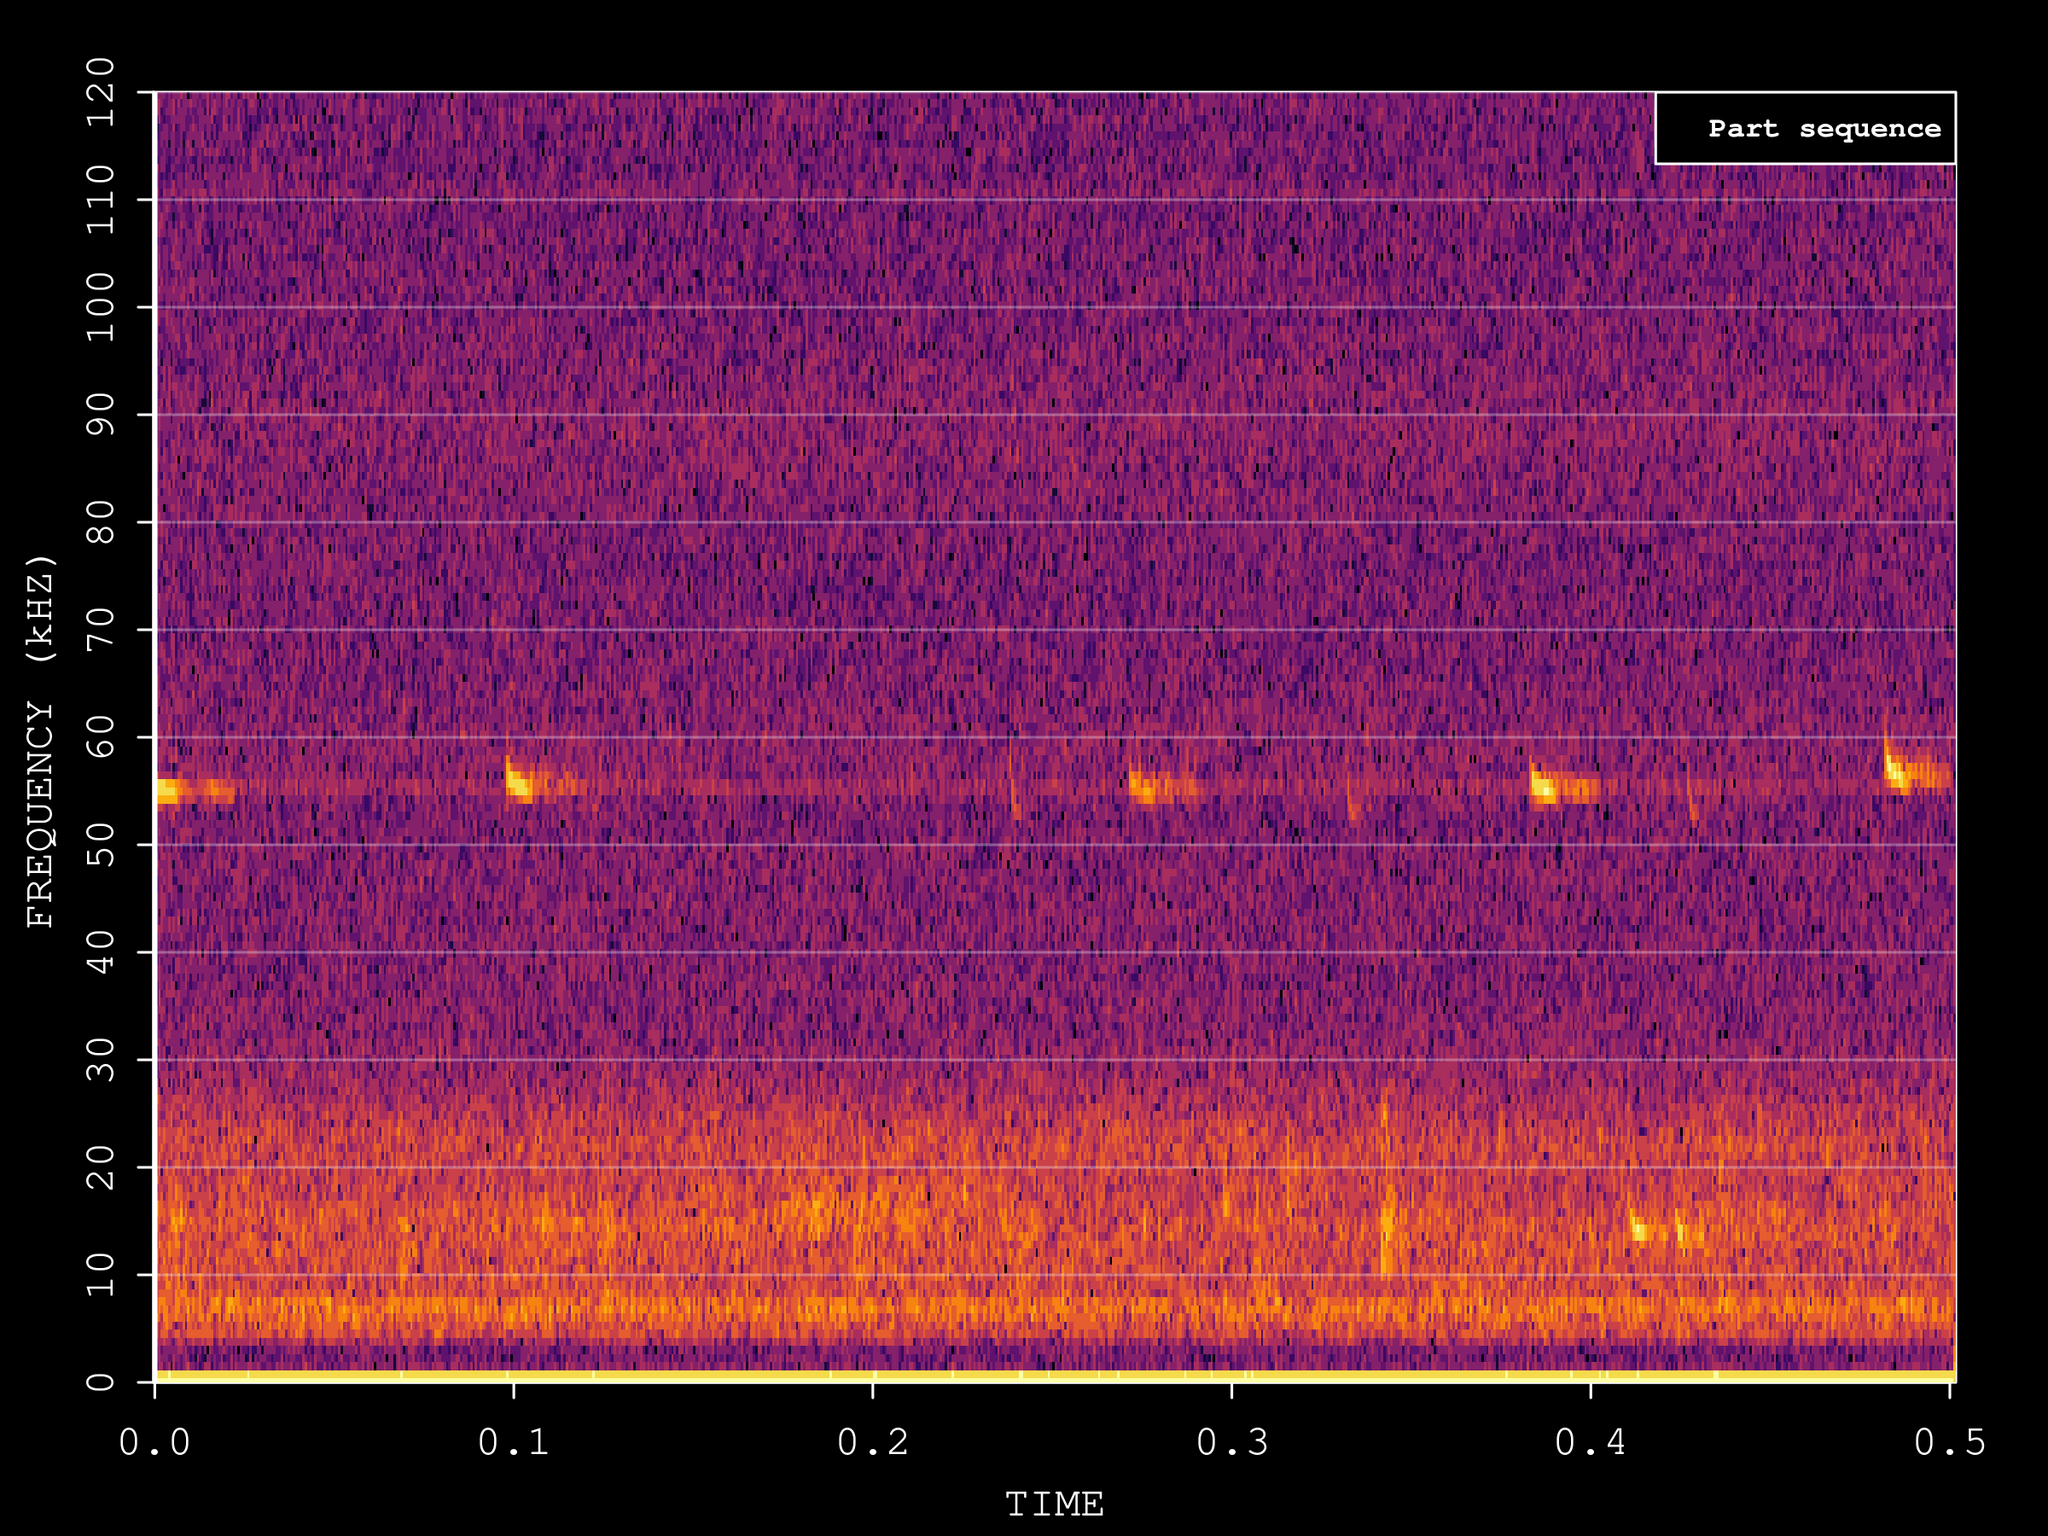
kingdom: Animalia
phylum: Chordata
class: Mammalia
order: Chiroptera
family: Vespertilionidae
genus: Pipistrellus
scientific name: Pipistrellus pygmaeus
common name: Soprano pipistrelle
